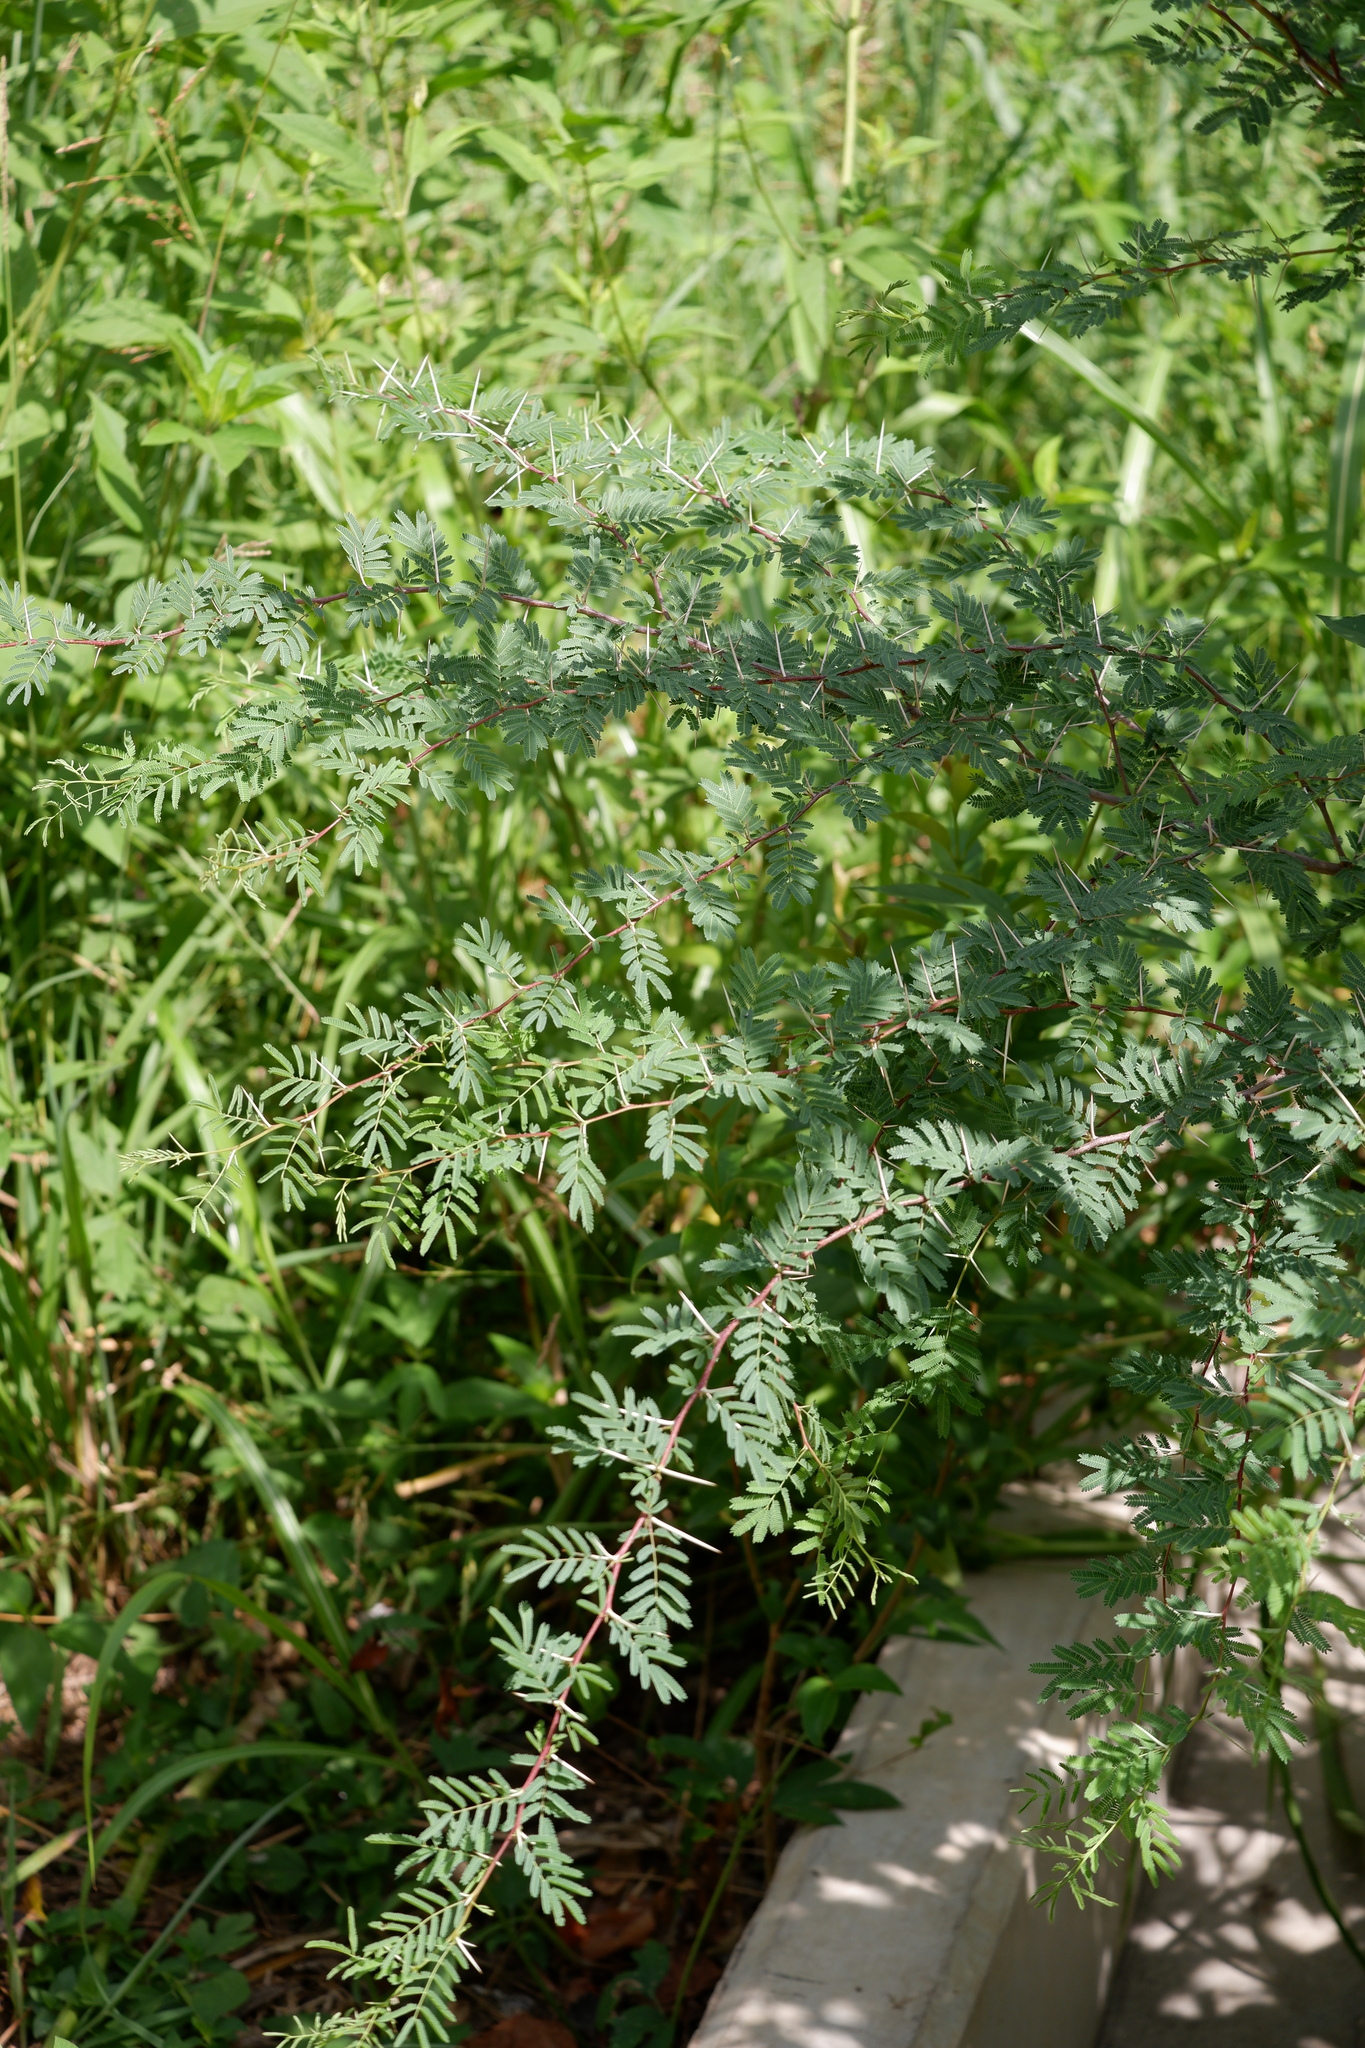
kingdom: Plantae
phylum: Tracheophyta
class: Magnoliopsida
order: Fabales
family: Fabaceae
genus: Vachellia
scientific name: Vachellia farnesiana
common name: Sweet acacia
